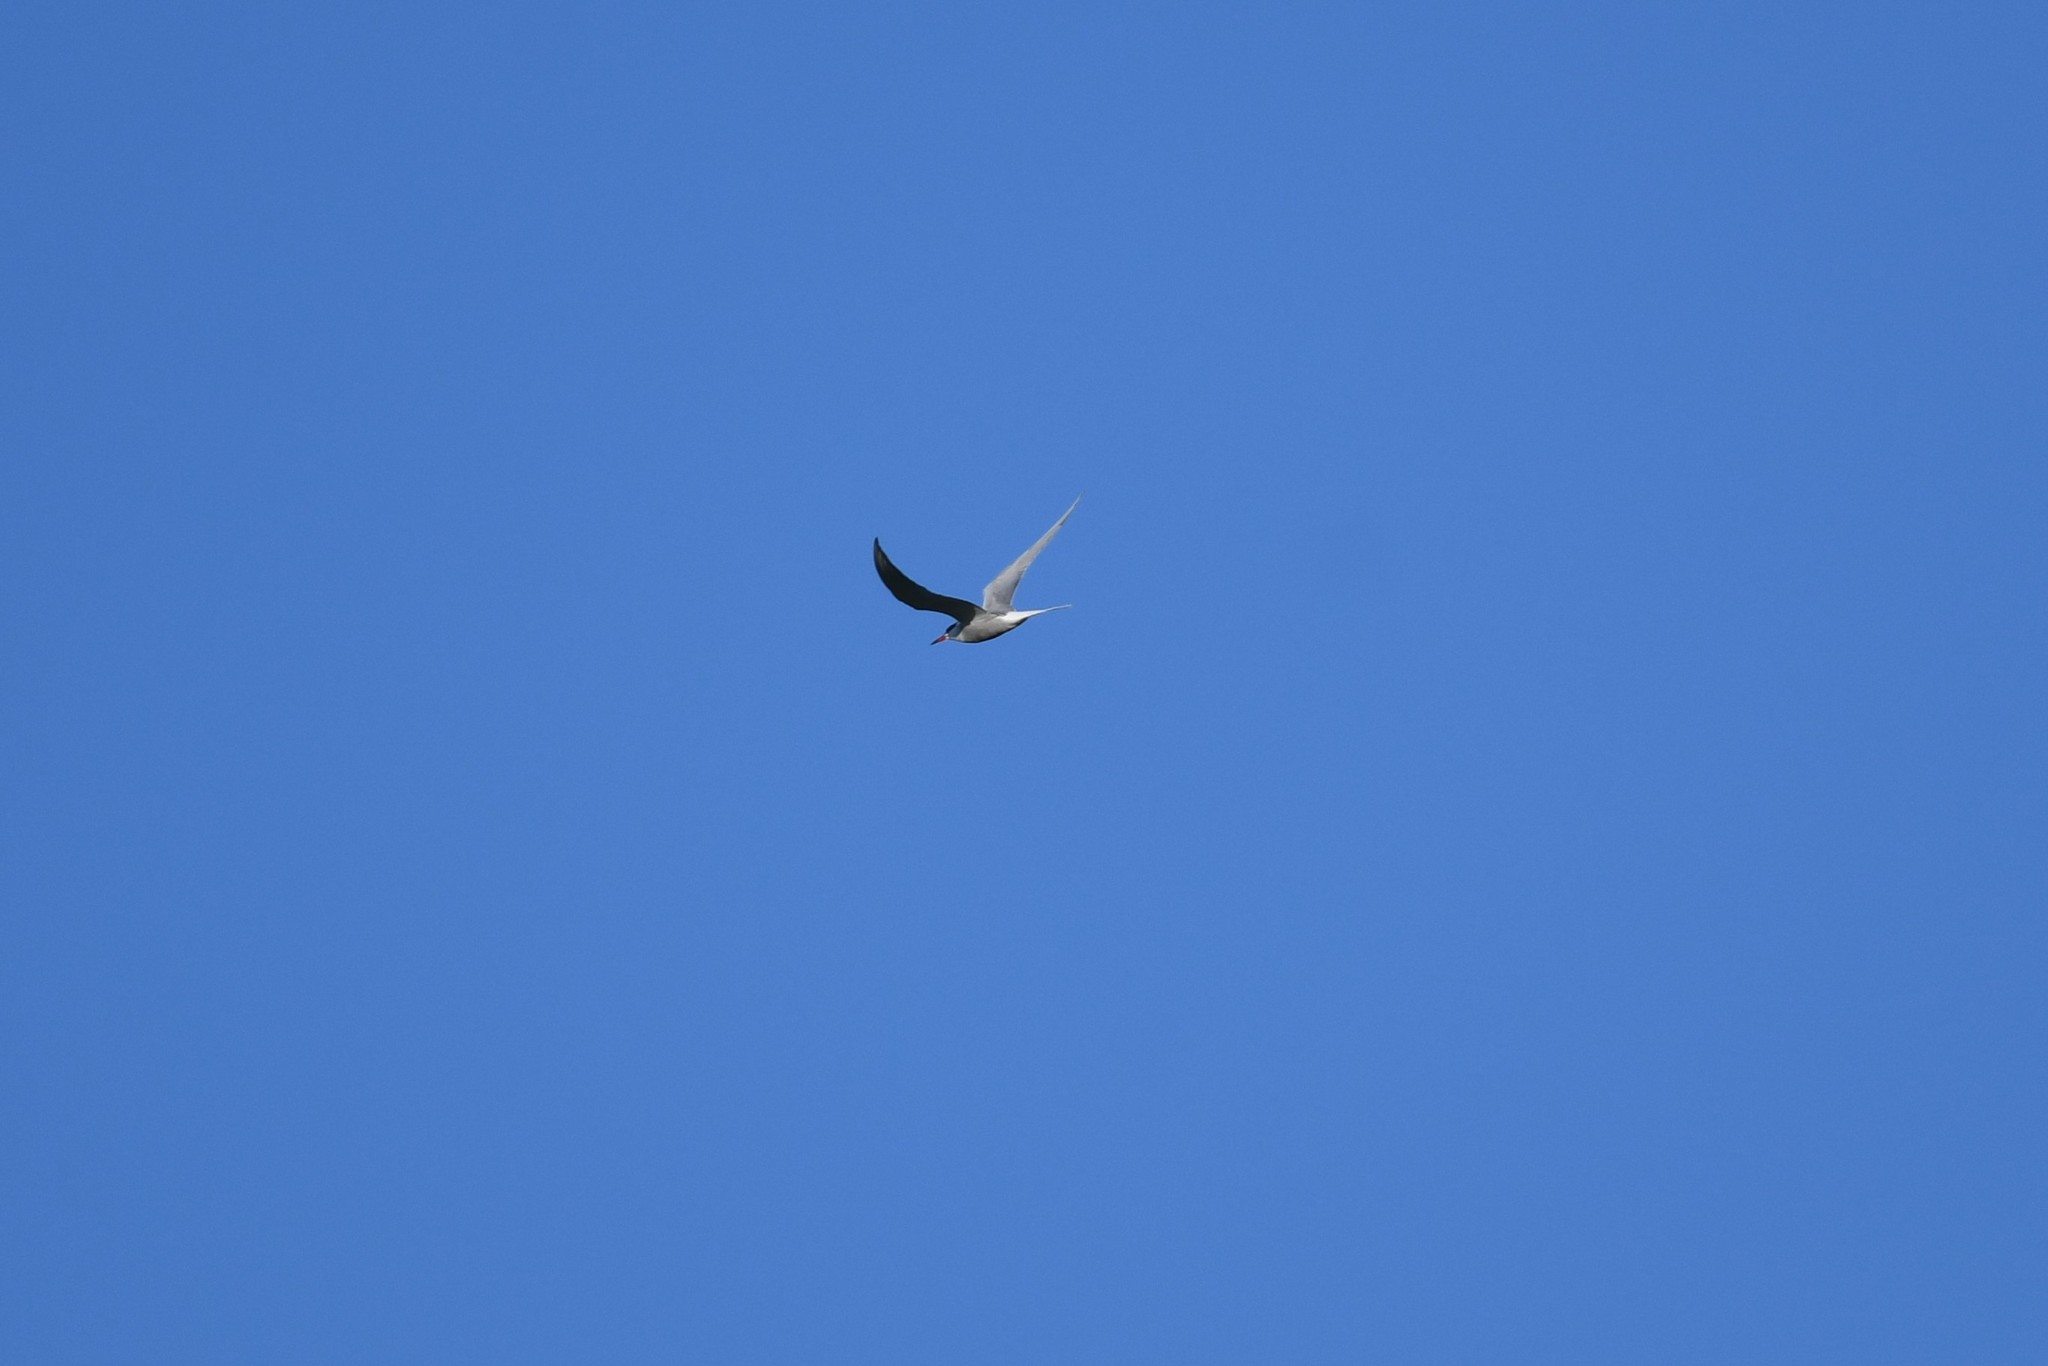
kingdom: Animalia
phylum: Chordata
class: Aves
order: Charadriiformes
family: Laridae
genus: Sterna
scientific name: Sterna hirundo
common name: Common tern
